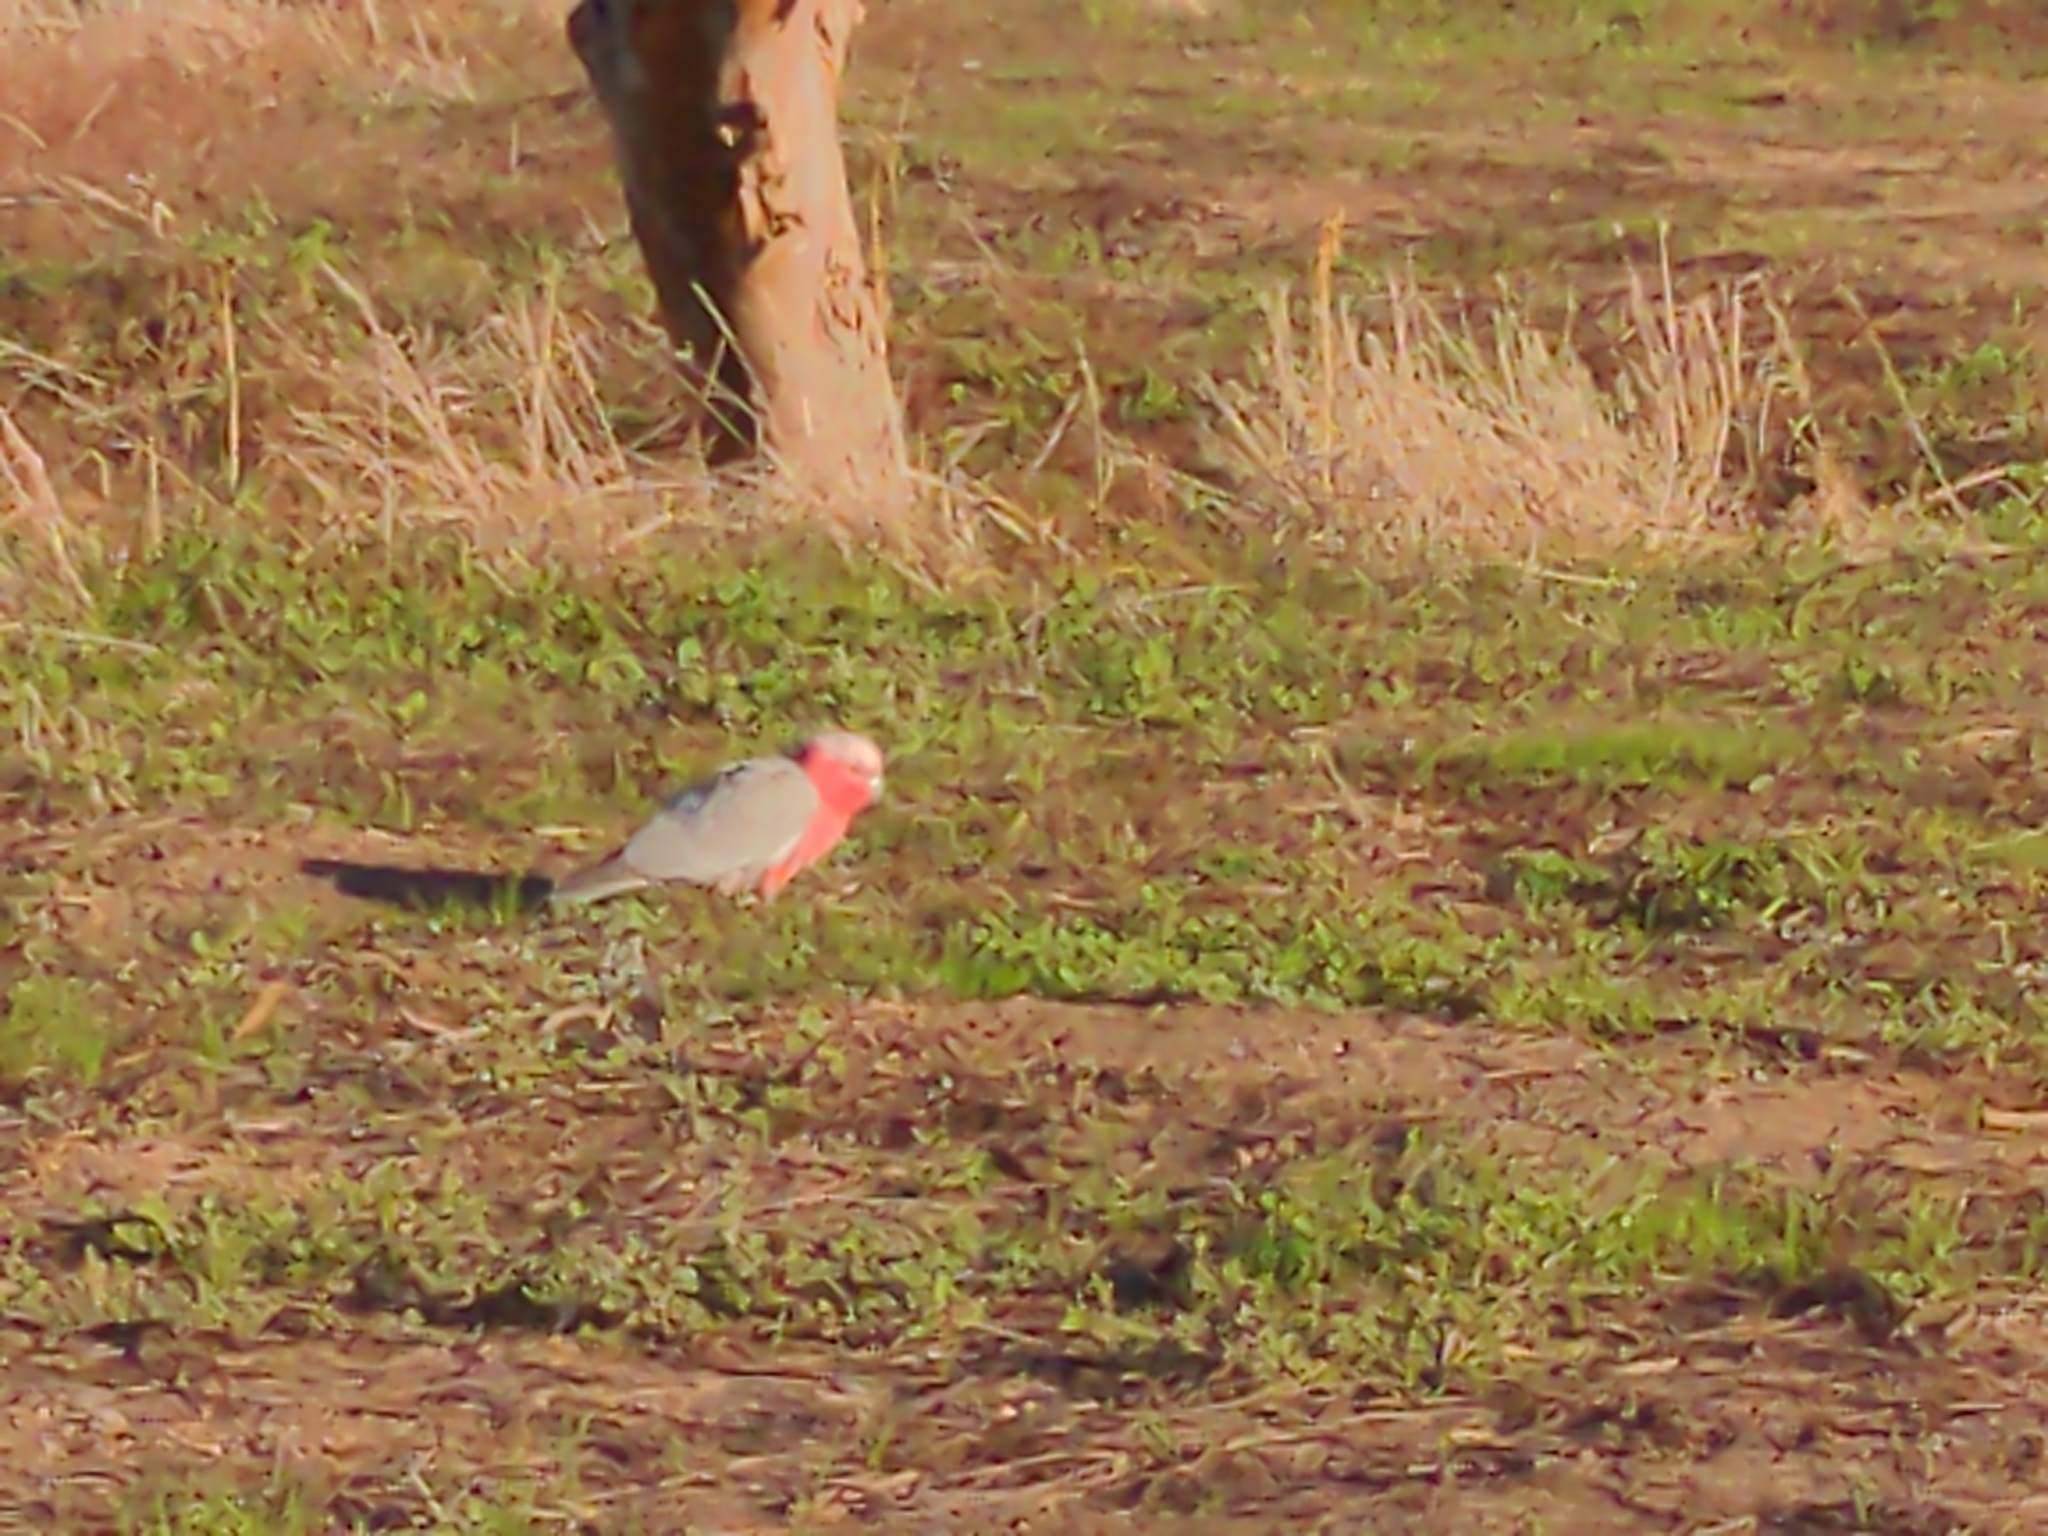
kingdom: Animalia
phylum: Chordata
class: Aves
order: Psittaciformes
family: Psittacidae
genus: Eolophus
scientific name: Eolophus roseicapilla
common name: Galah
